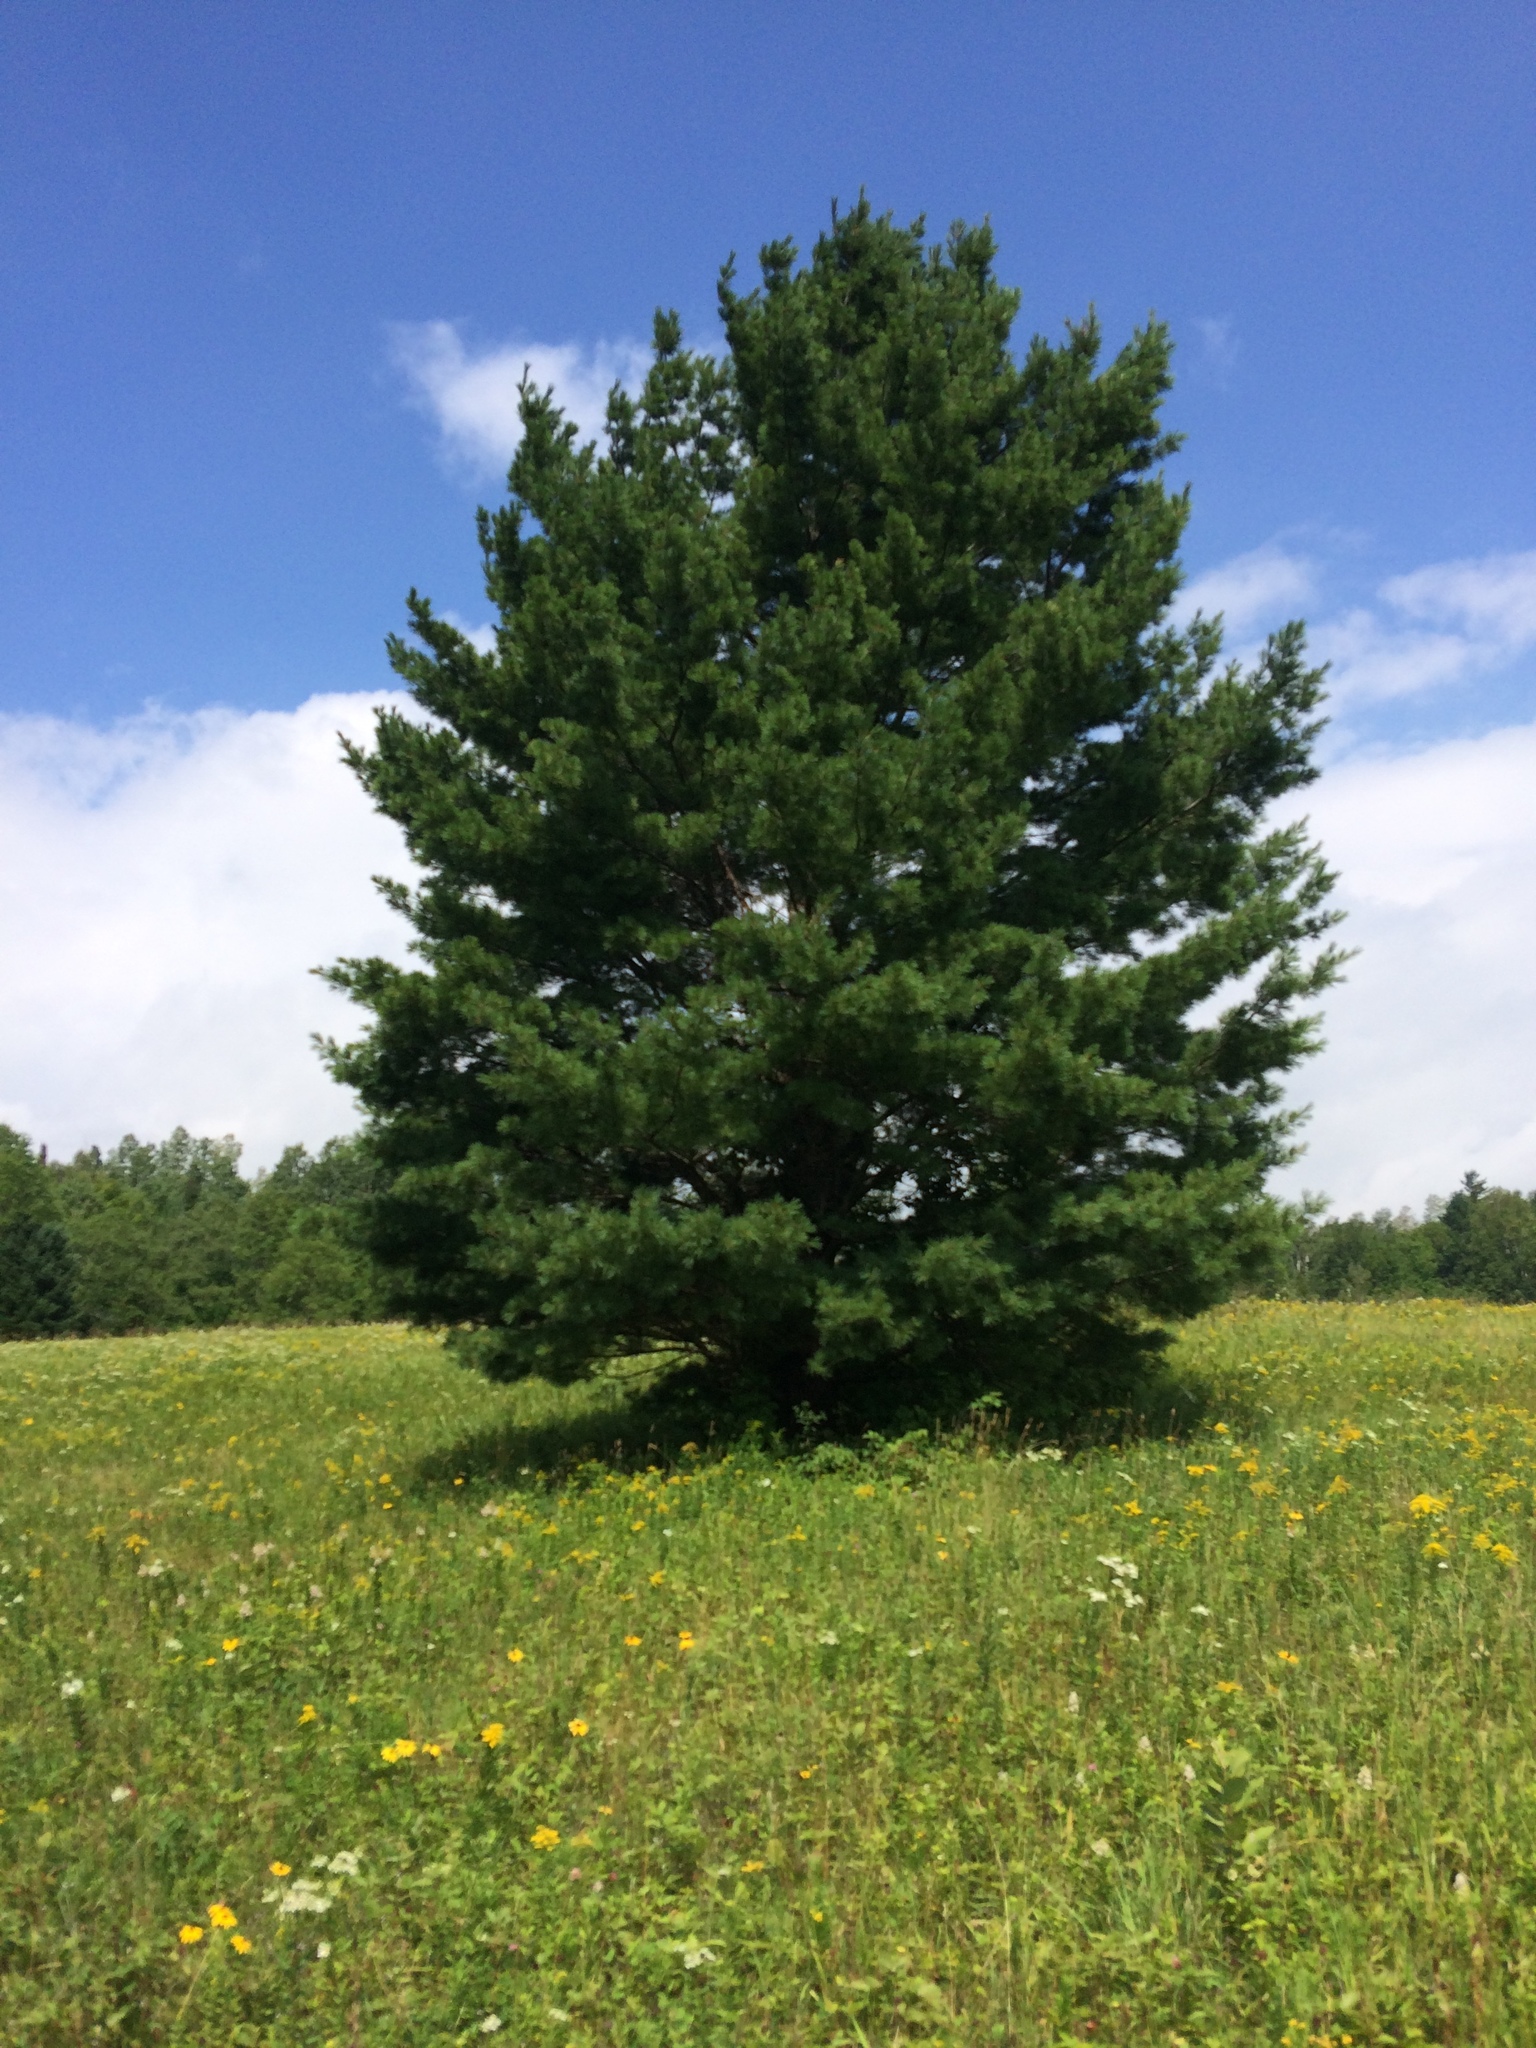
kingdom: Plantae
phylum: Tracheophyta
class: Pinopsida
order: Pinales
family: Pinaceae
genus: Pinus
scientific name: Pinus strobus
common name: Weymouth pine
